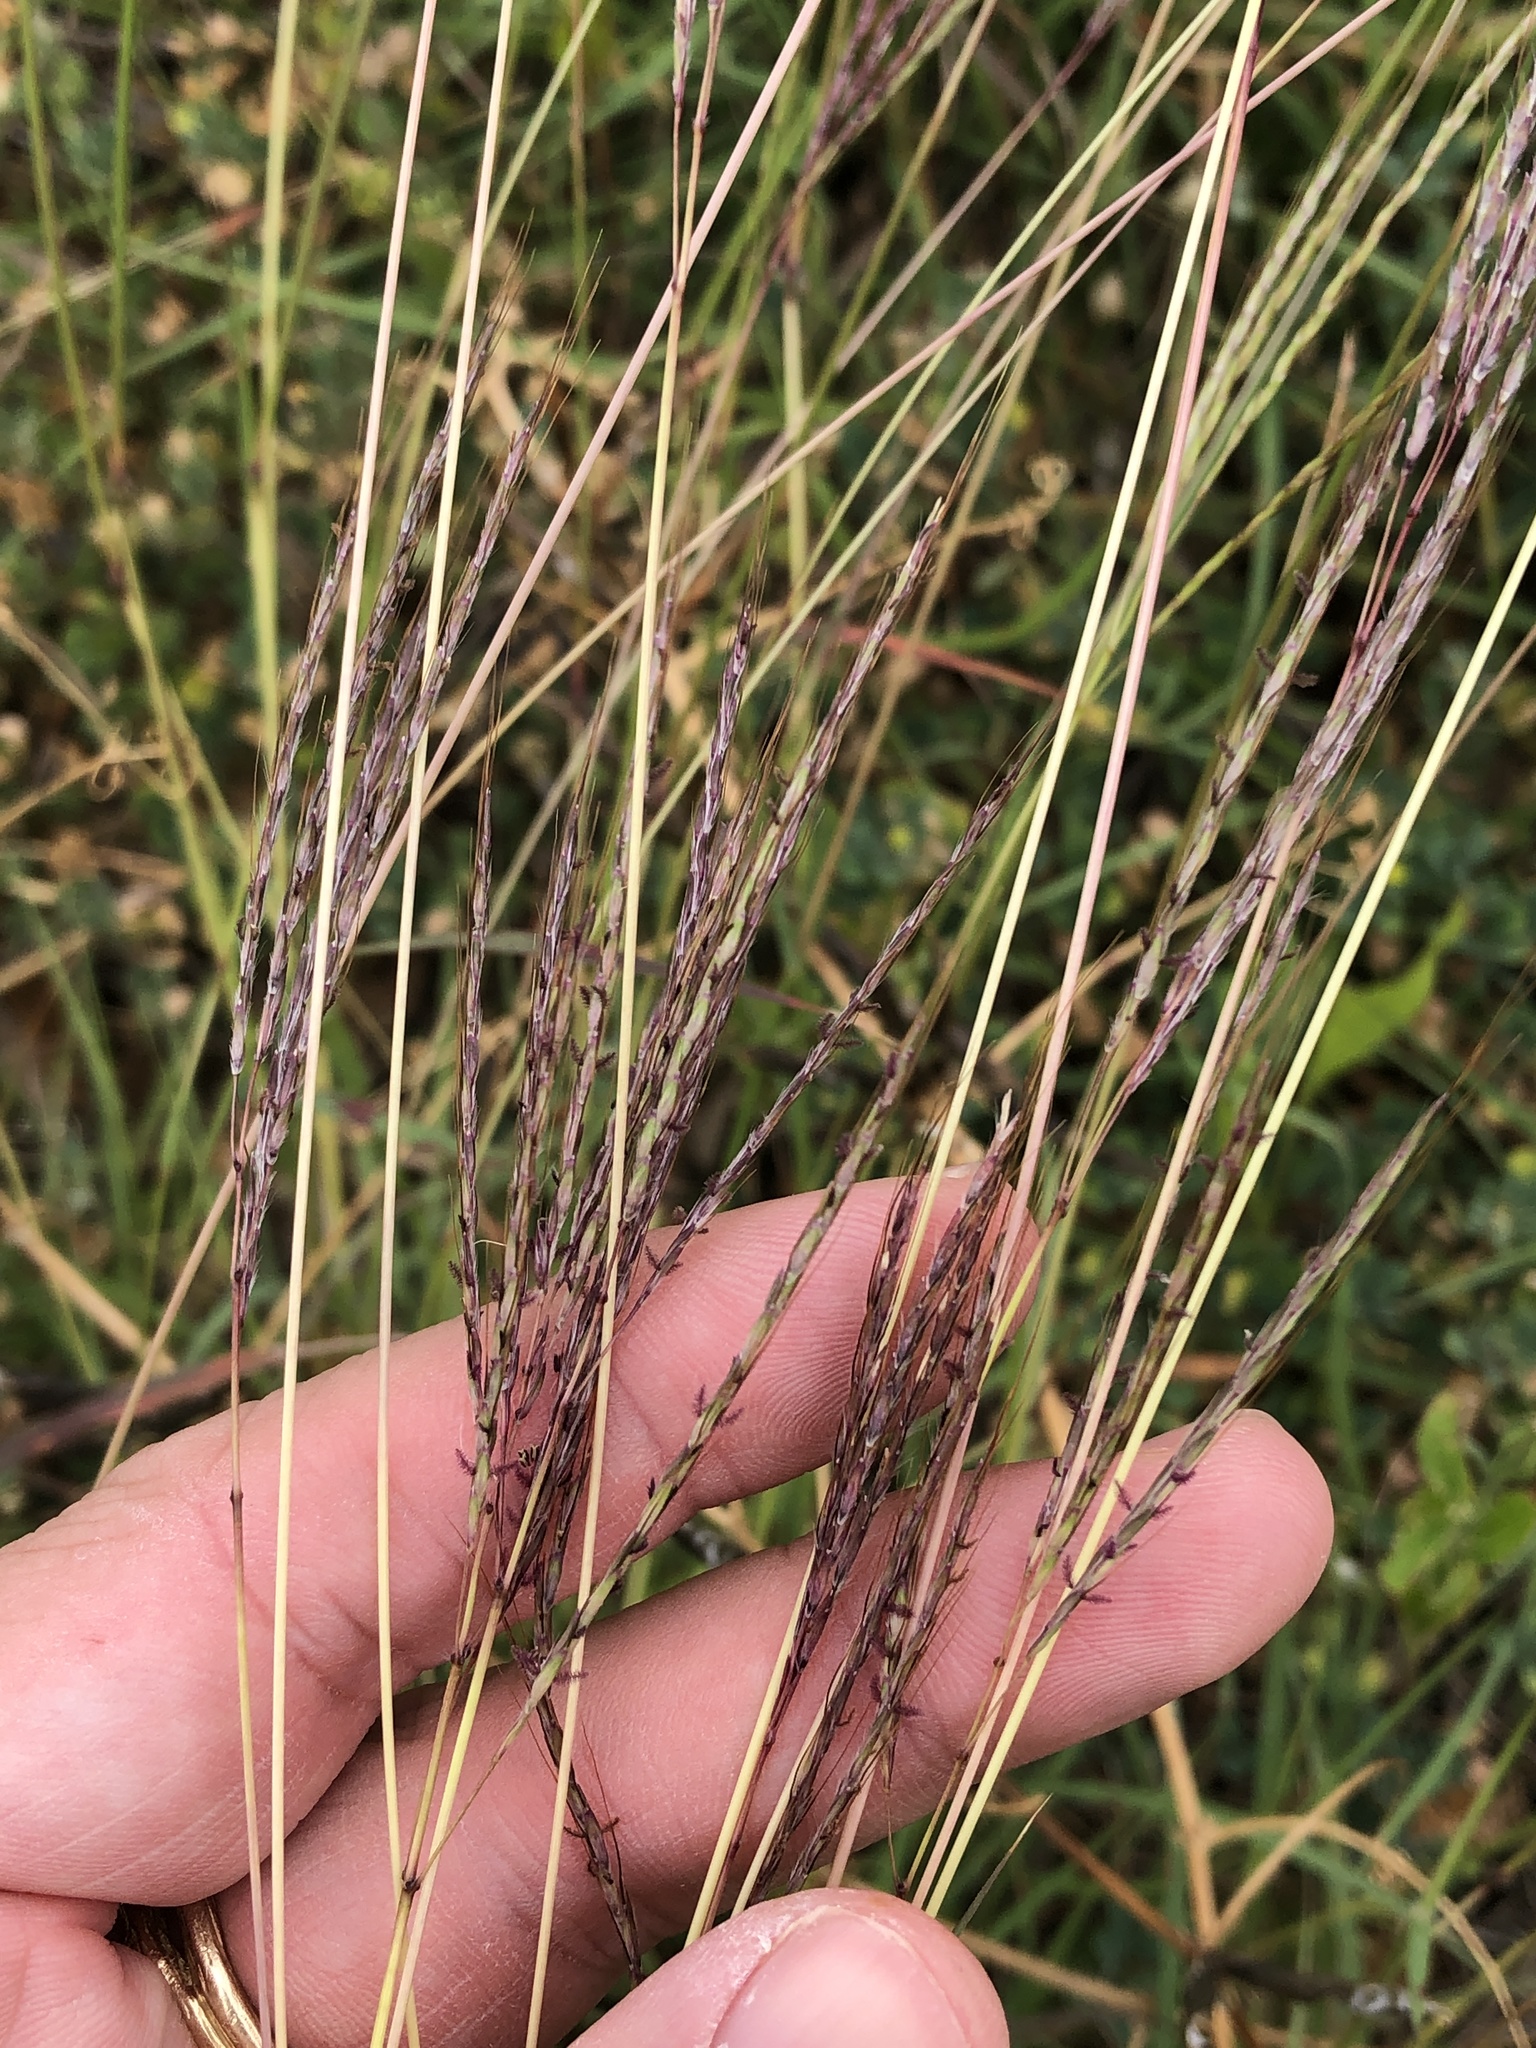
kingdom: Plantae
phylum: Tracheophyta
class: Liliopsida
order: Poales
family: Poaceae
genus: Bothriochloa
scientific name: Bothriochloa ischaemum
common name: Yellow bluestem
